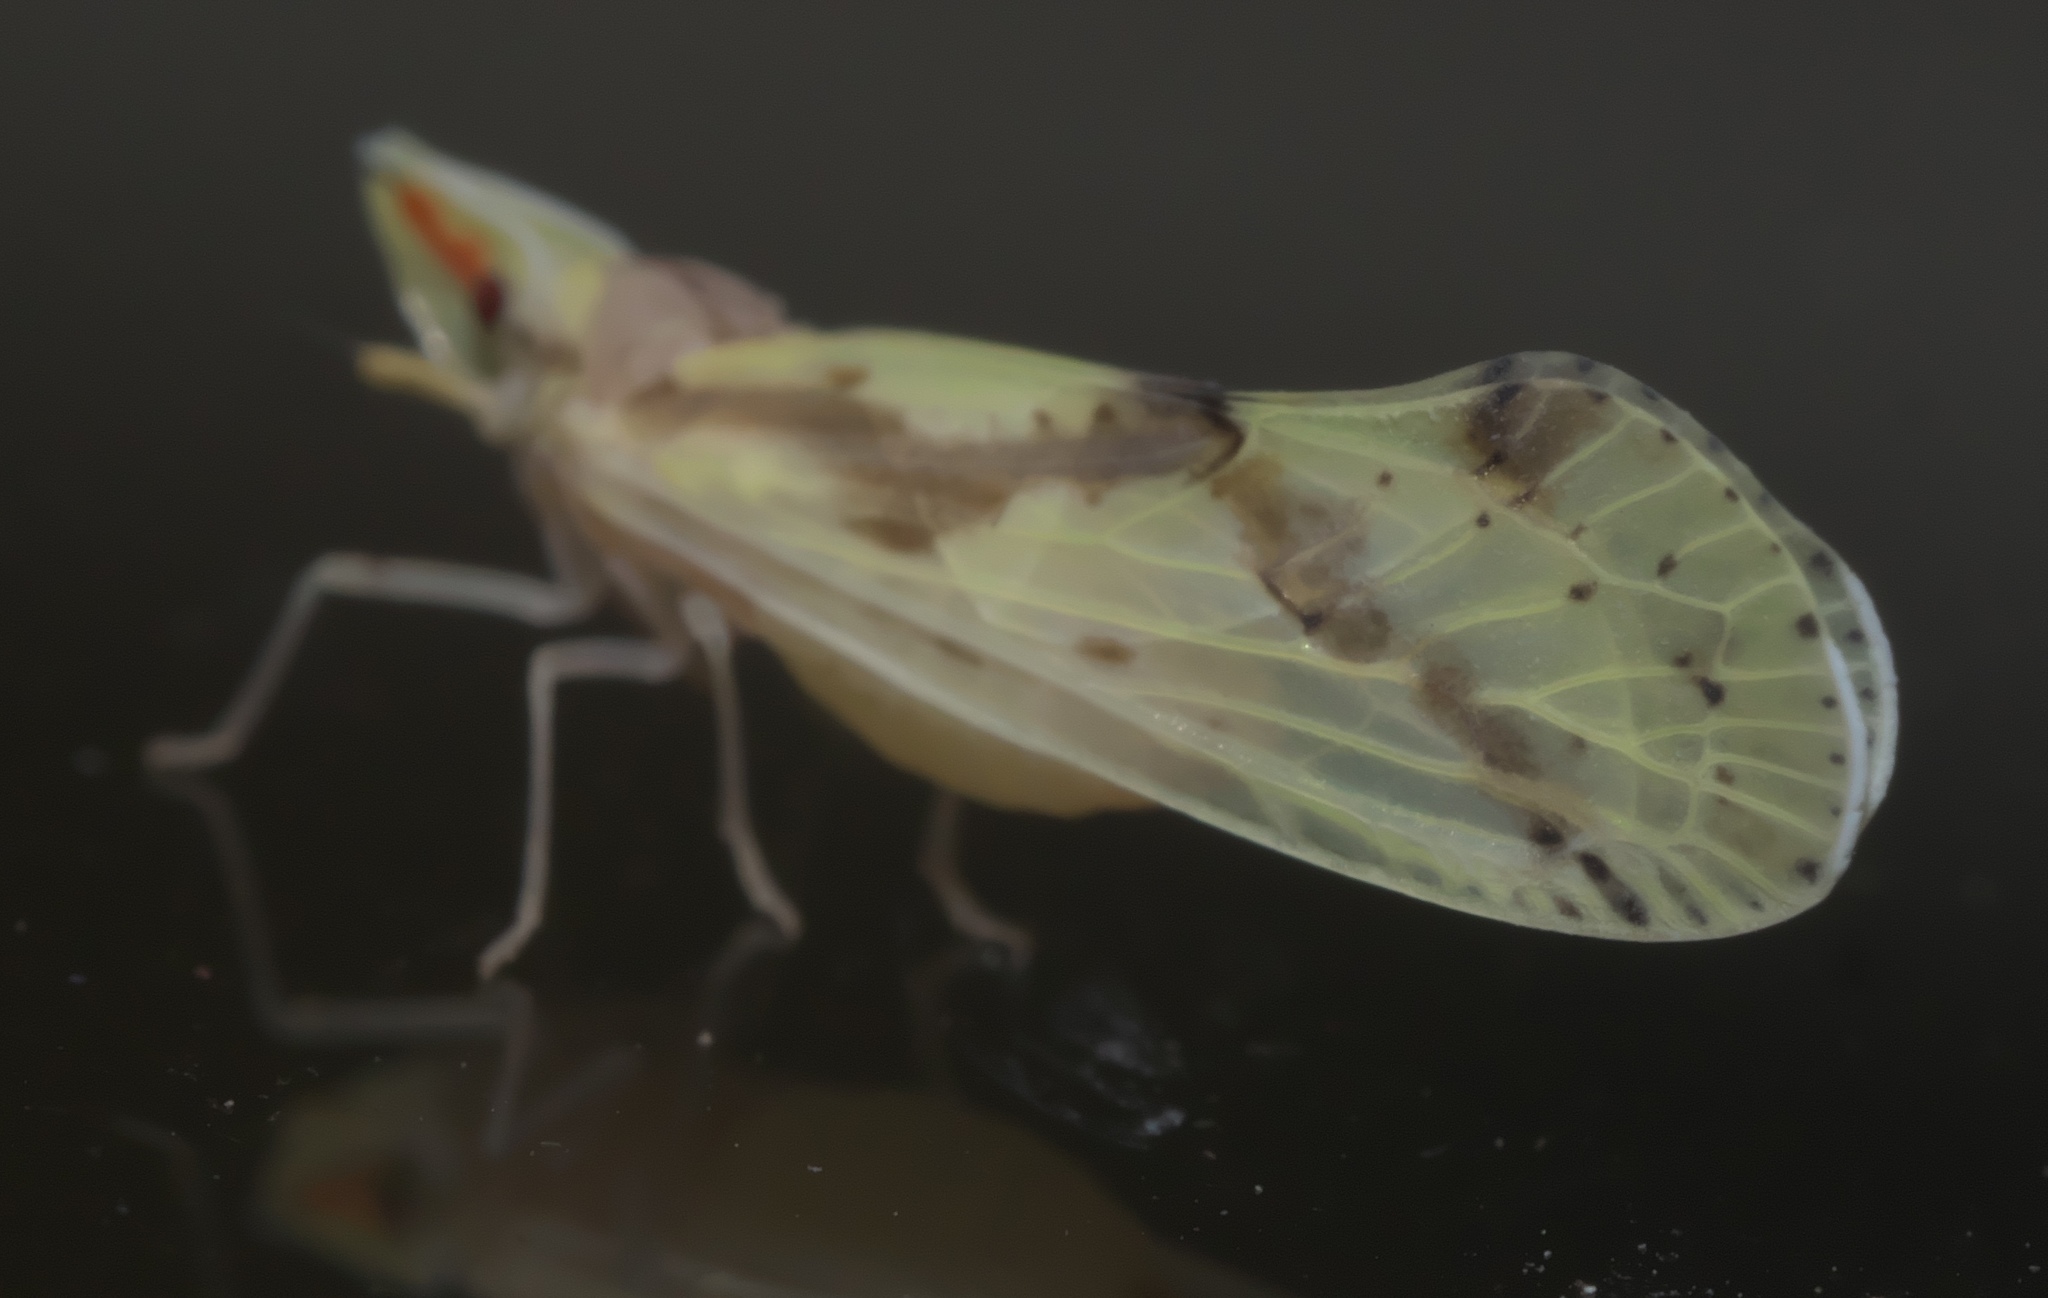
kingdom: Animalia
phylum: Arthropoda
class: Insecta
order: Hemiptera
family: Derbidae
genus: Otiocerus
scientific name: Otiocerus wolfii
